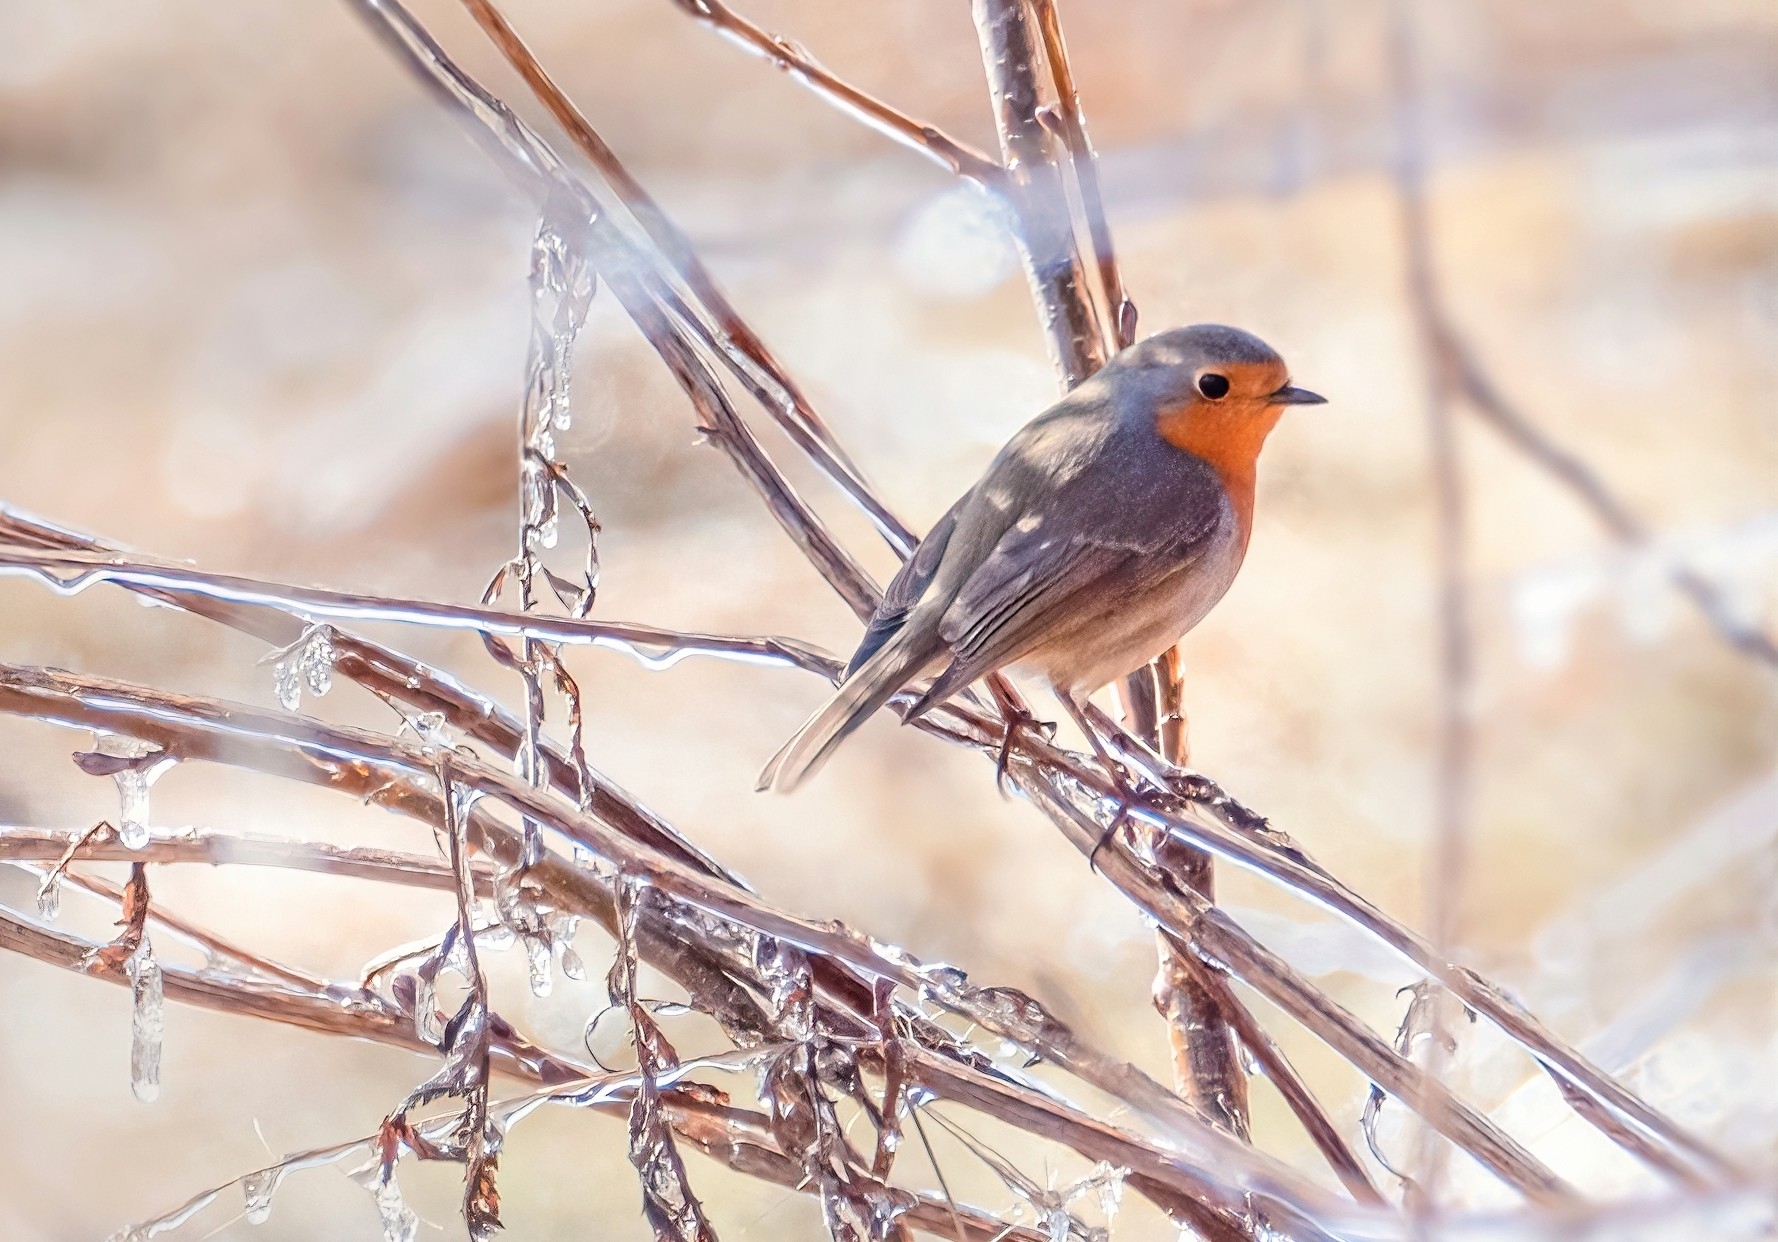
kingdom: Animalia
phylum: Chordata
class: Aves
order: Passeriformes
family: Muscicapidae
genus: Erithacus
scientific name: Erithacus rubecula
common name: European robin
